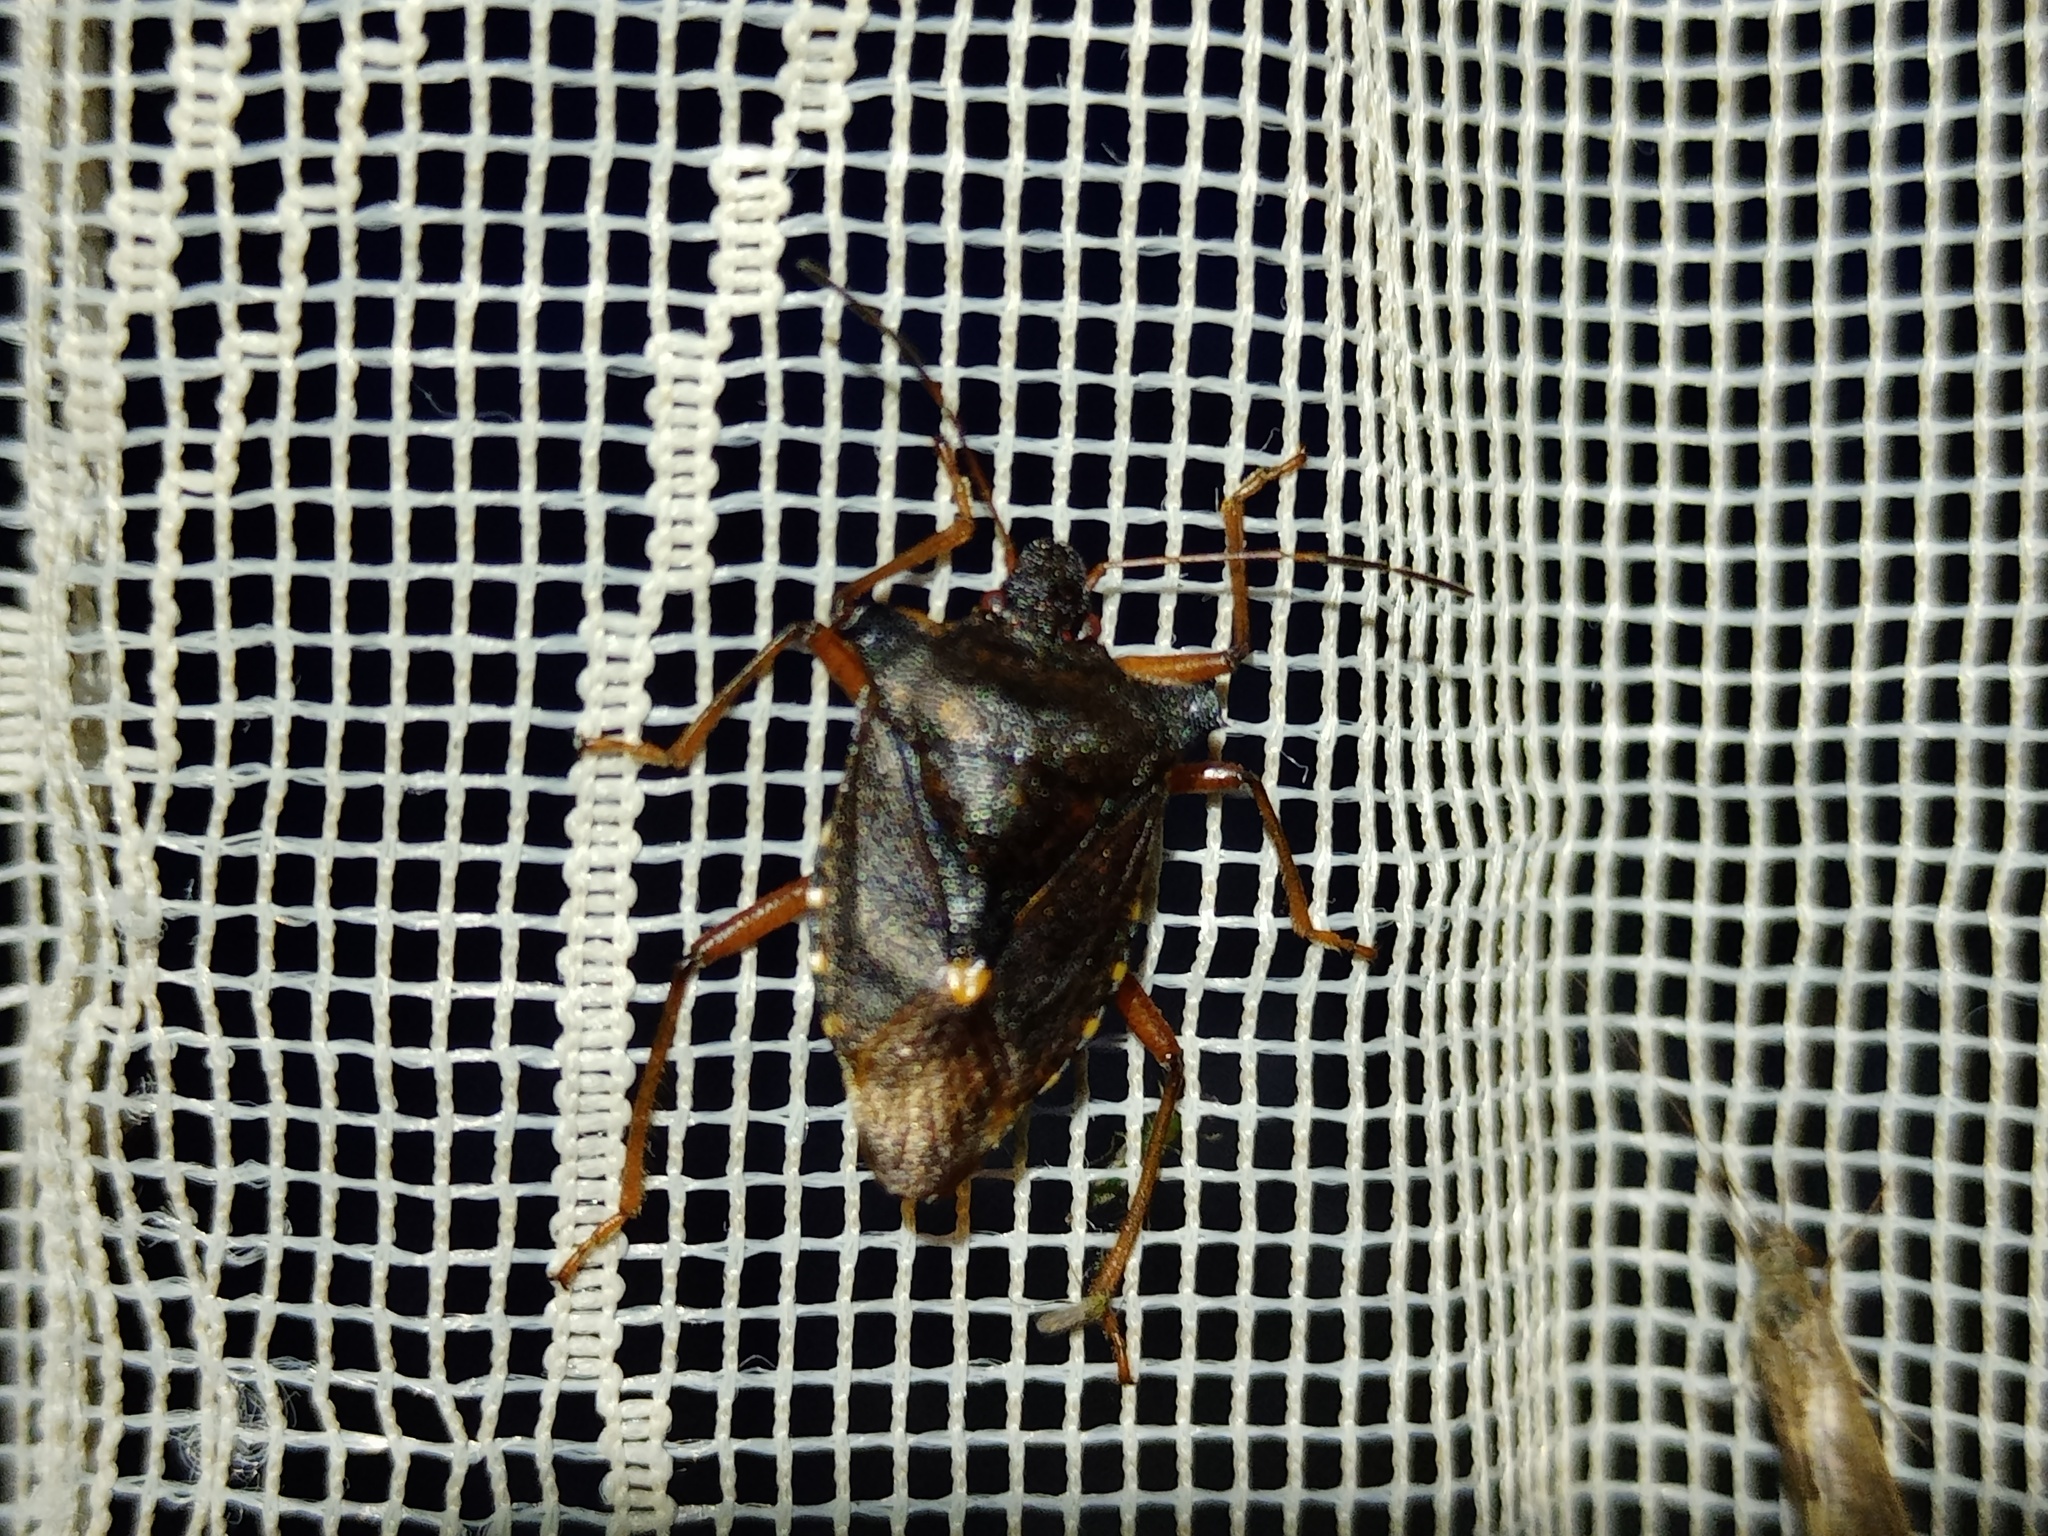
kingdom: Animalia
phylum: Arthropoda
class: Insecta
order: Hemiptera
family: Pentatomidae
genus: Pentatoma
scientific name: Pentatoma rufipes
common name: Forest bug
